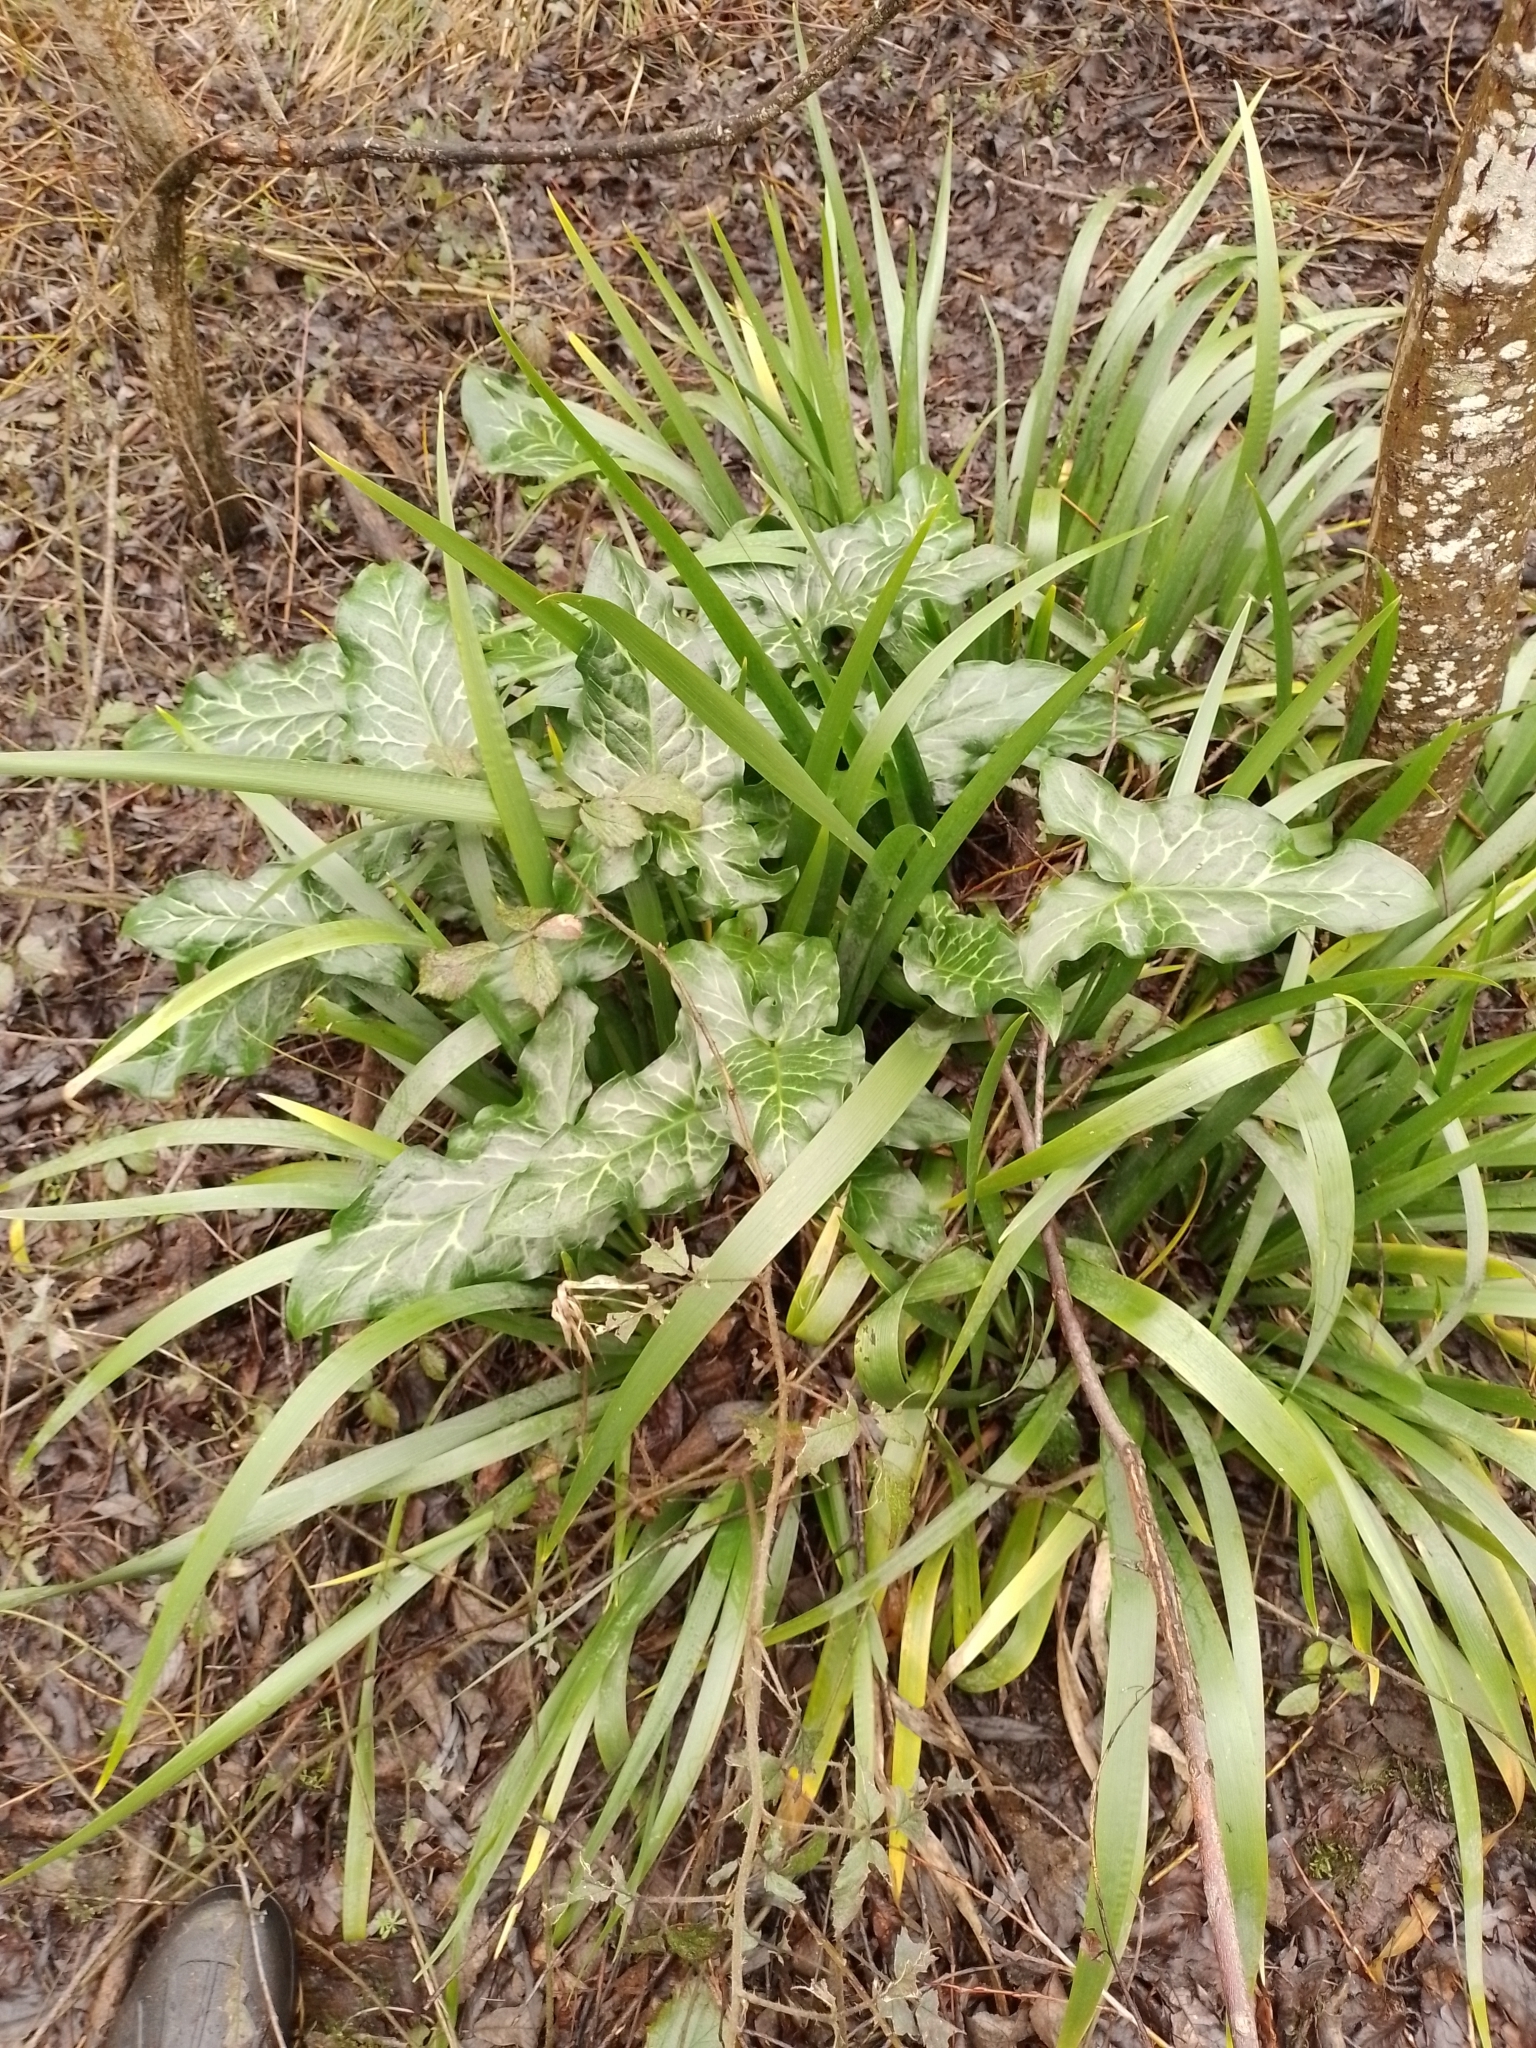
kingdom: Plantae
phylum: Tracheophyta
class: Liliopsida
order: Alismatales
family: Araceae
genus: Arum
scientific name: Arum italicum
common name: Italian lords-and-ladies
